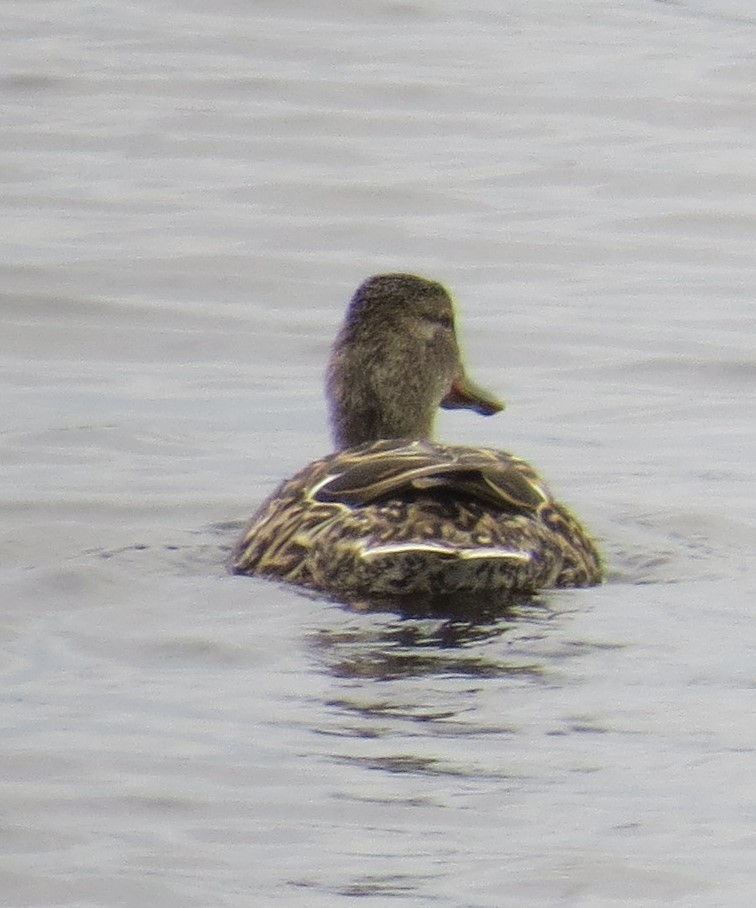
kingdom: Animalia
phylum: Chordata
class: Aves
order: Anseriformes
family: Anatidae
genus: Anas
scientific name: Anas platyrhynchos
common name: Mallard
